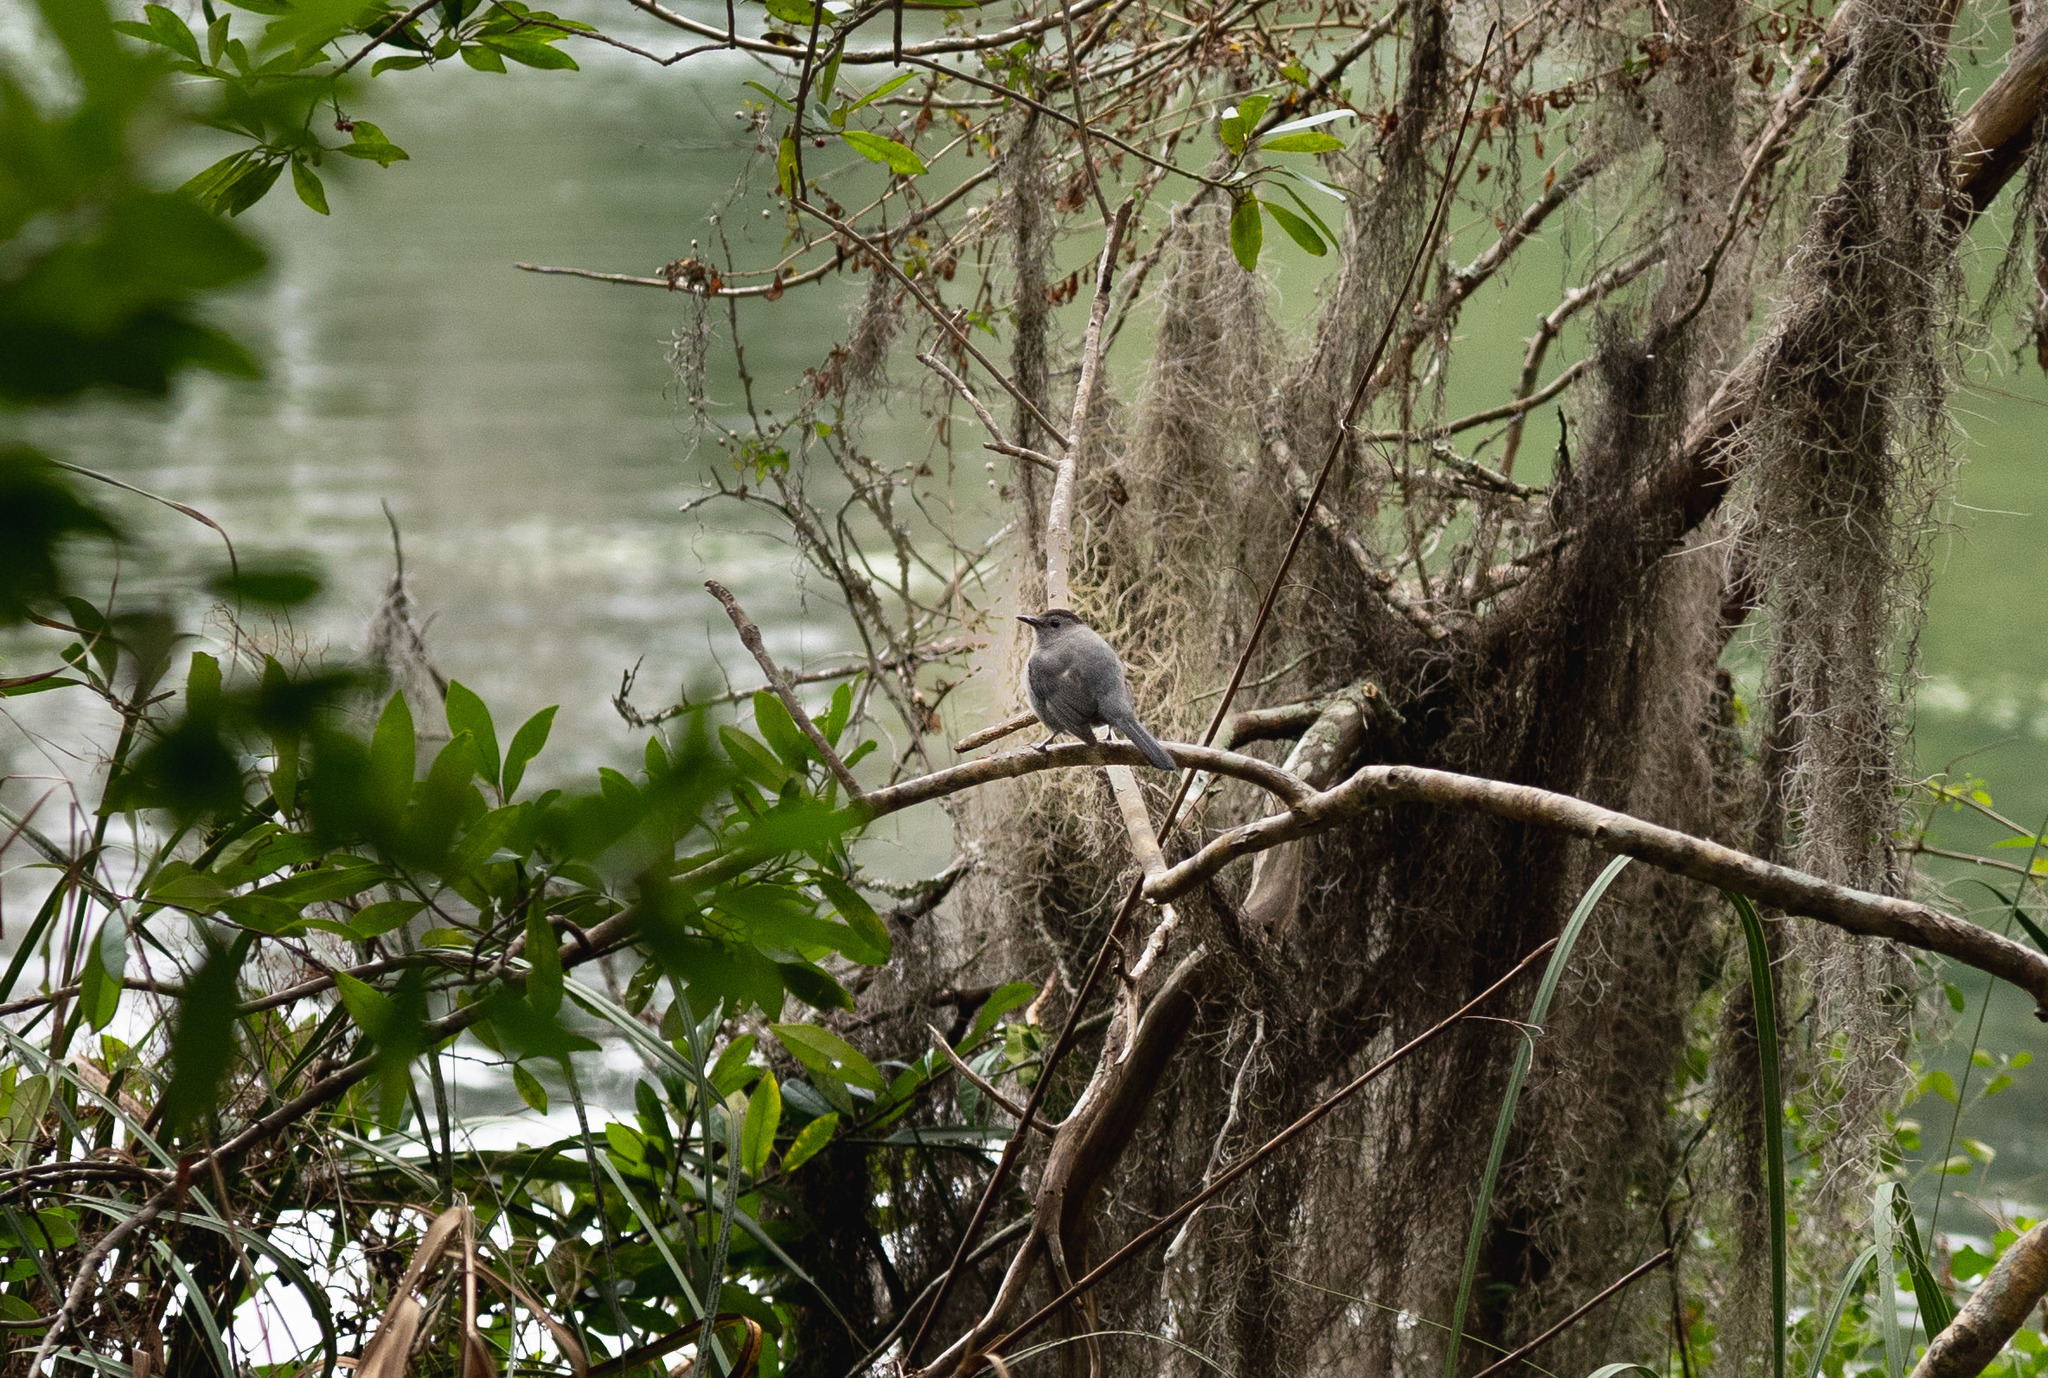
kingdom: Animalia
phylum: Chordata
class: Aves
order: Passeriformes
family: Mimidae
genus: Dumetella
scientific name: Dumetella carolinensis
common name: Gray catbird
